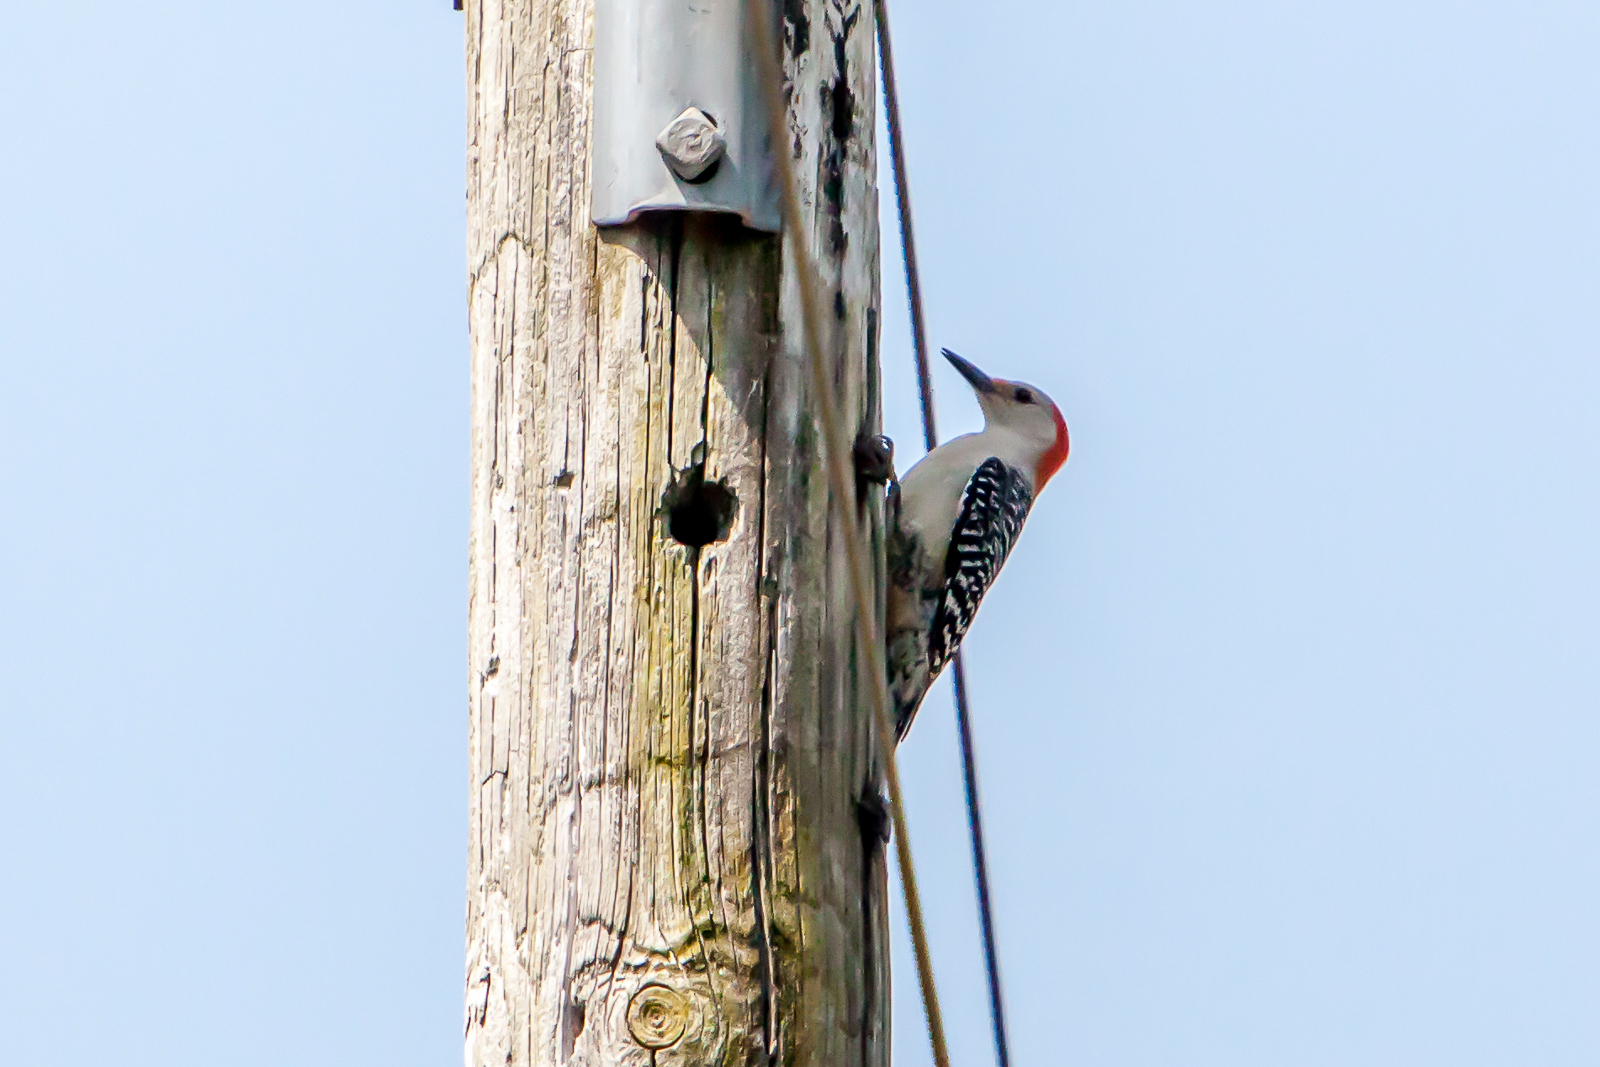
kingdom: Animalia
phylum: Chordata
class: Aves
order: Piciformes
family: Picidae
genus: Melanerpes
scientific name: Melanerpes carolinus
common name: Red-bellied woodpecker
